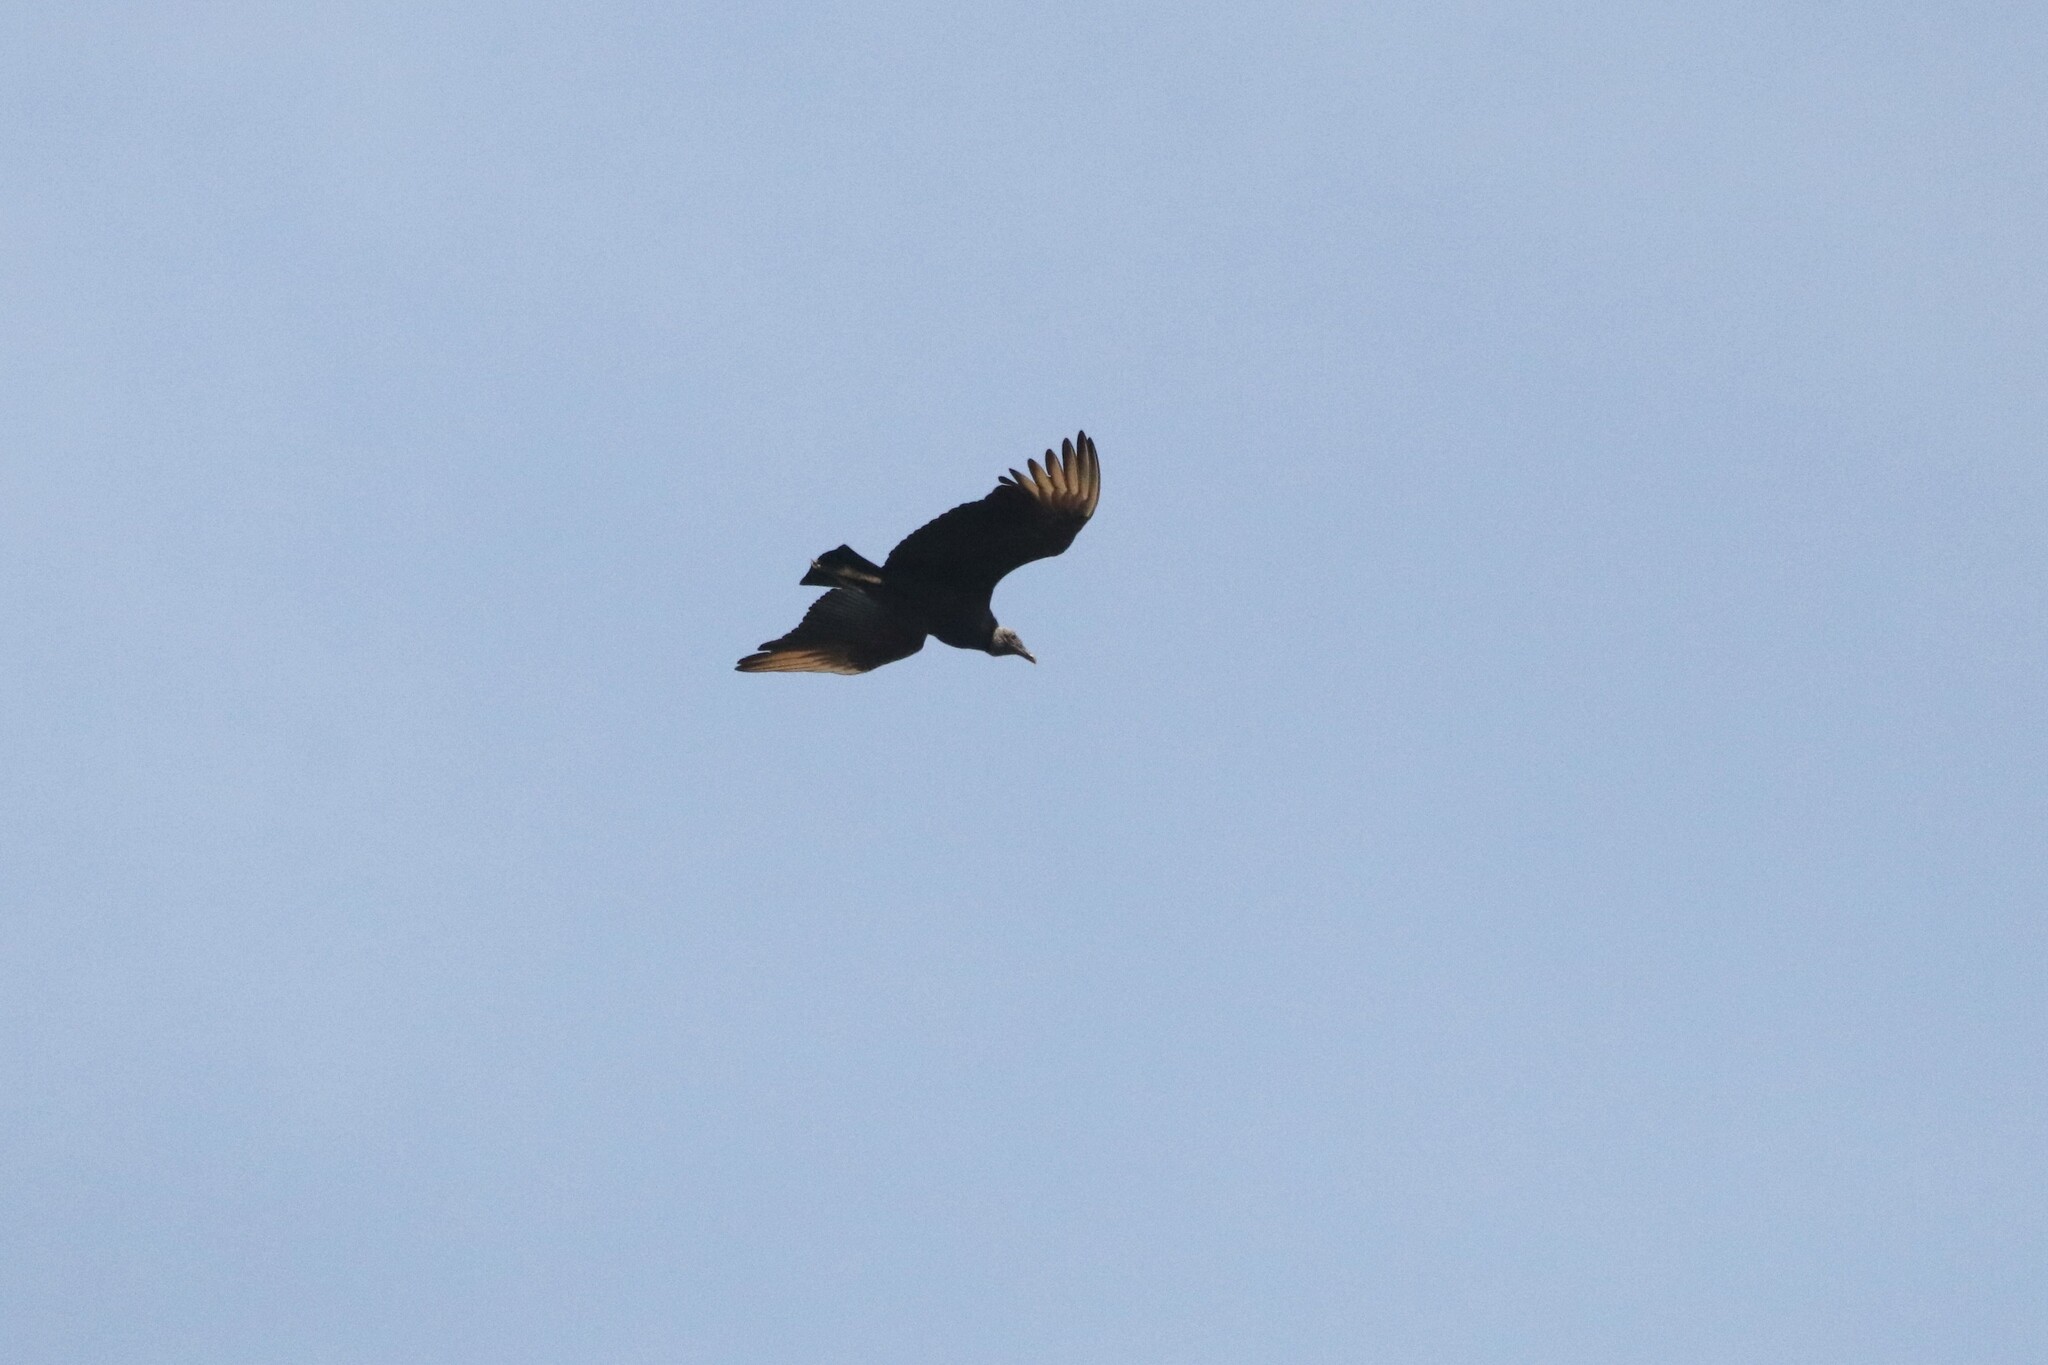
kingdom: Animalia
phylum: Chordata
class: Aves
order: Accipitriformes
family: Cathartidae
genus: Coragyps
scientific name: Coragyps atratus
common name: Black vulture
